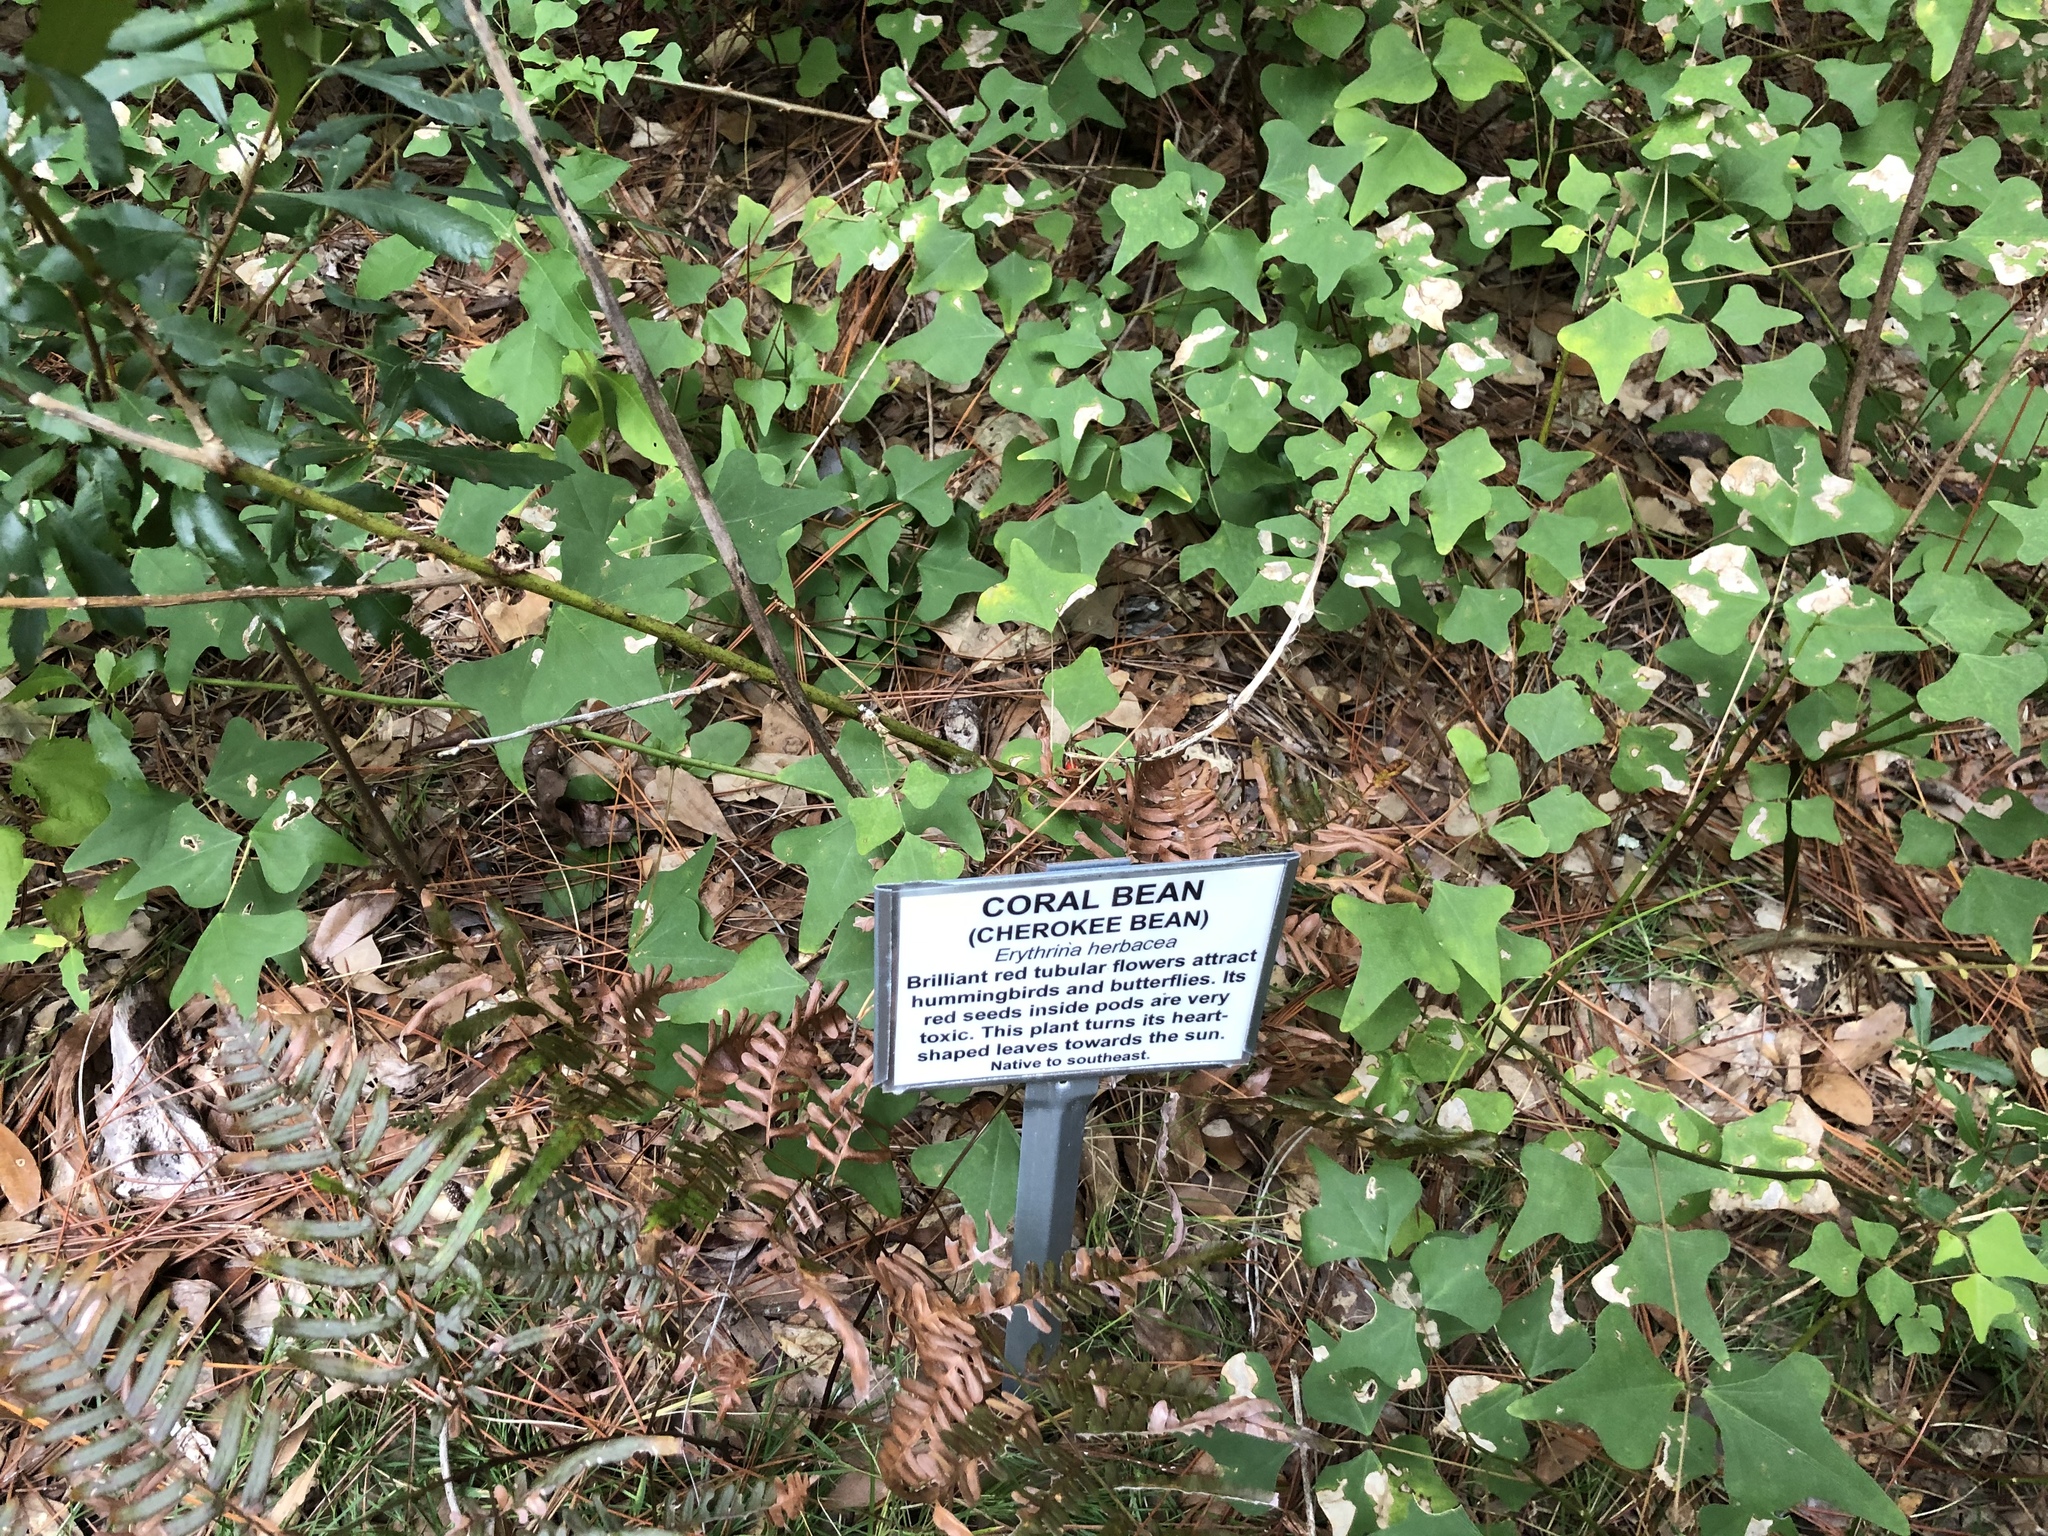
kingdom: Plantae
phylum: Tracheophyta
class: Magnoliopsida
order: Fabales
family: Fabaceae
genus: Erythrina
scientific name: Erythrina herbacea
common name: Coral-bean
